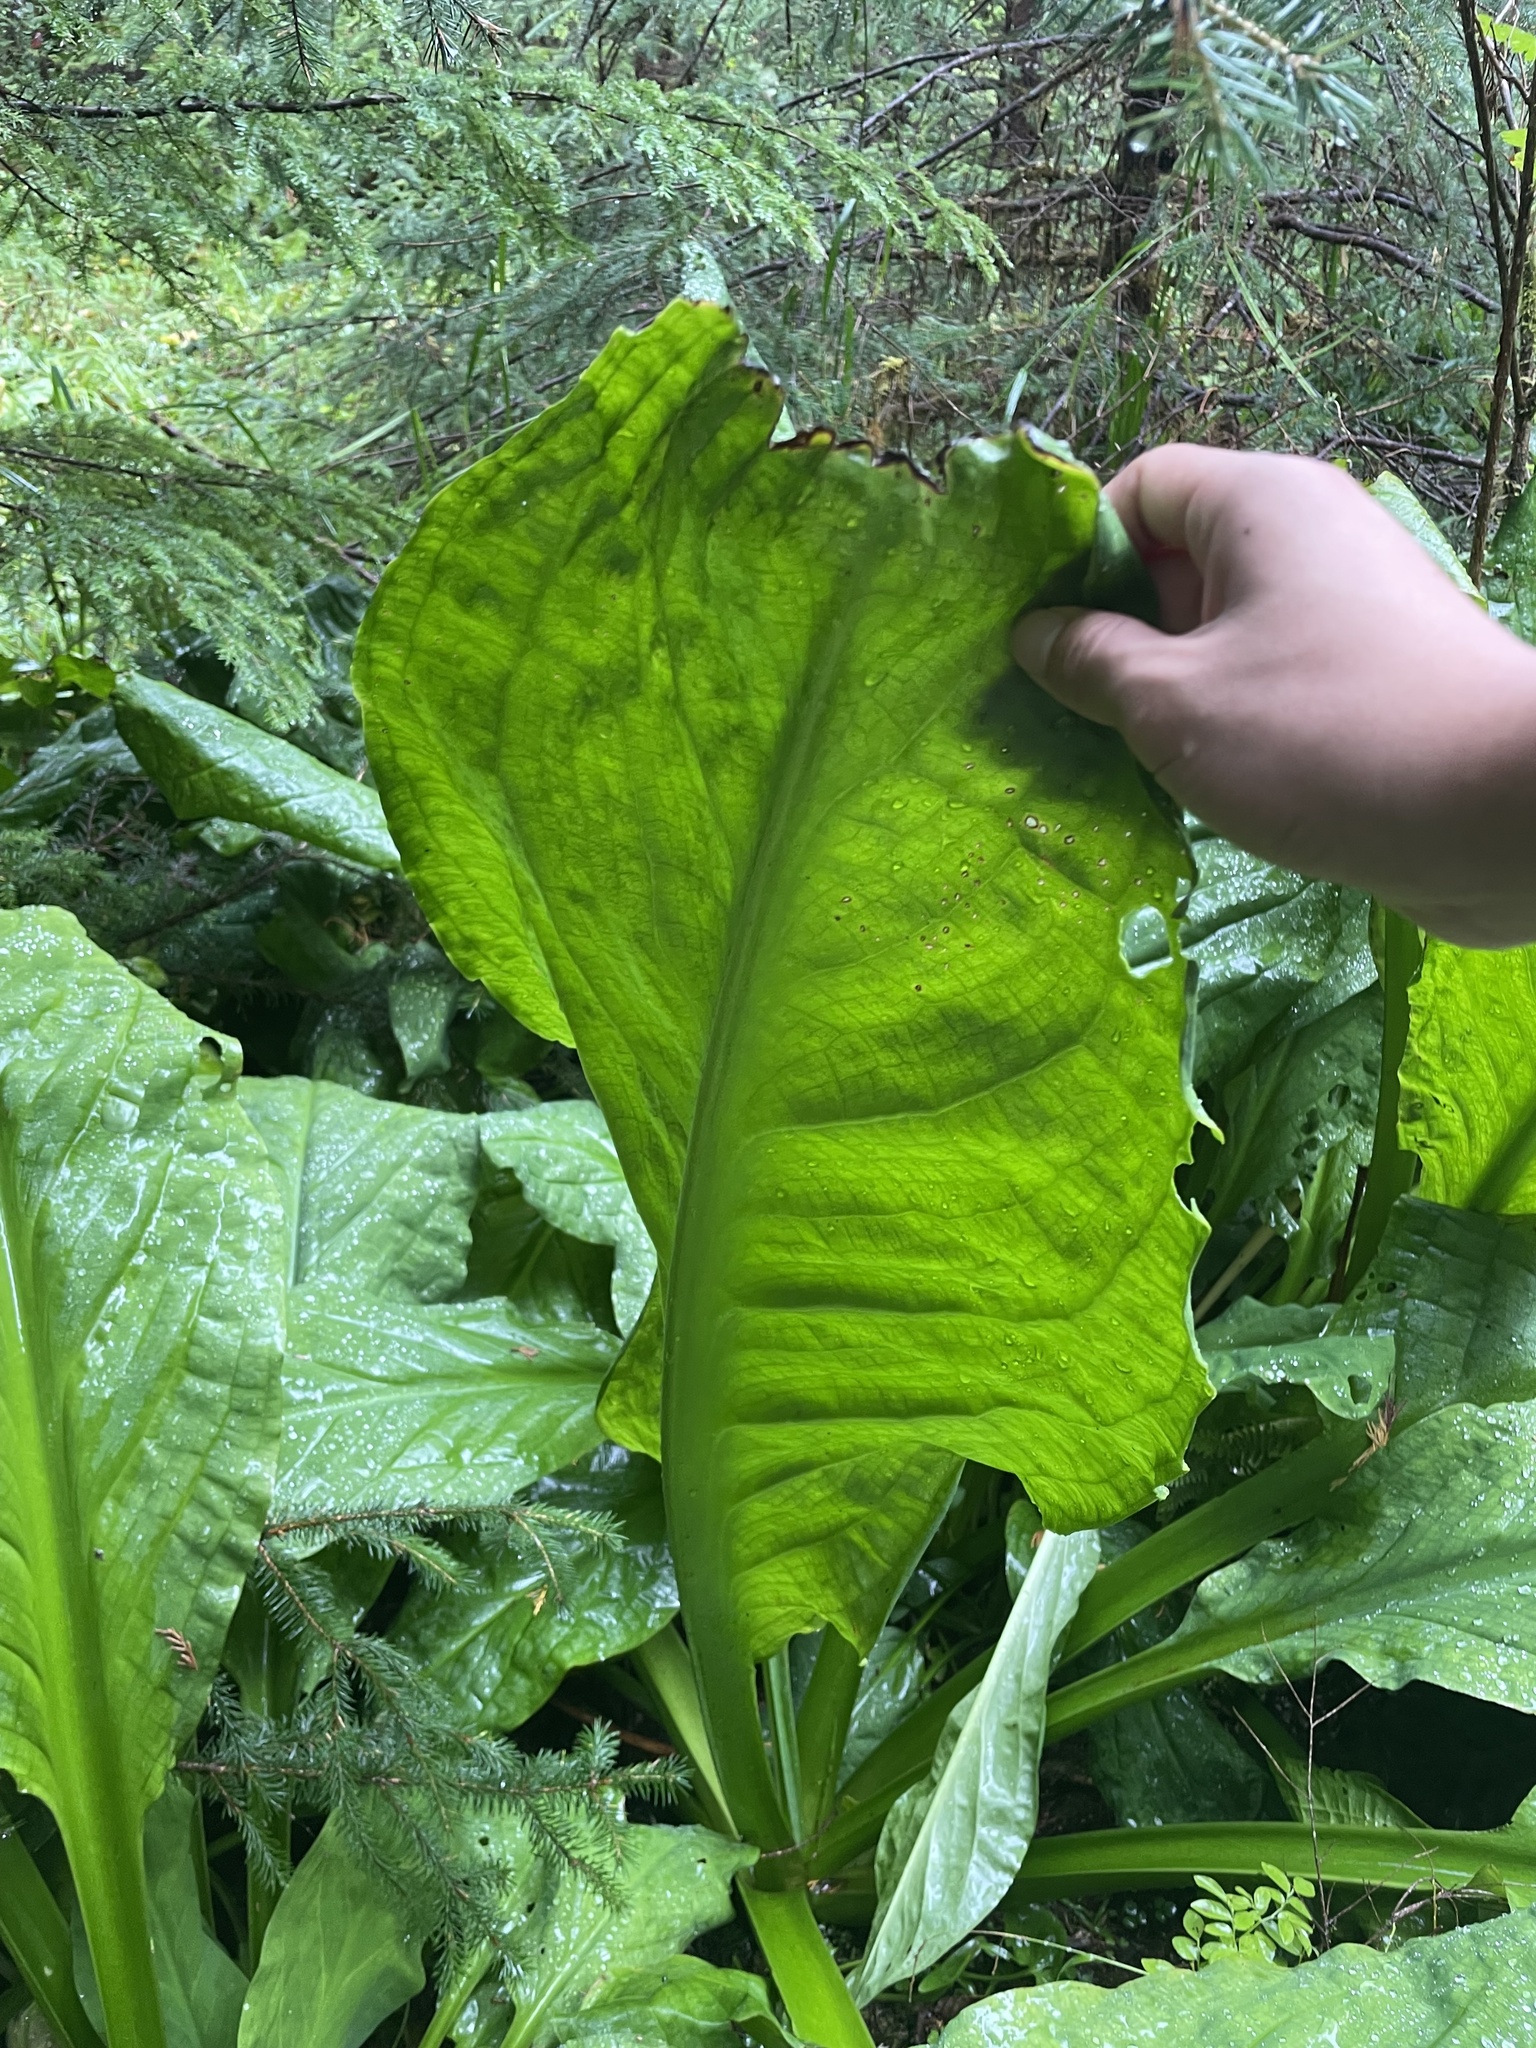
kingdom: Plantae
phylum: Tracheophyta
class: Liliopsida
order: Alismatales
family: Araceae
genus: Lysichiton
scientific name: Lysichiton americanus
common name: American skunk cabbage
